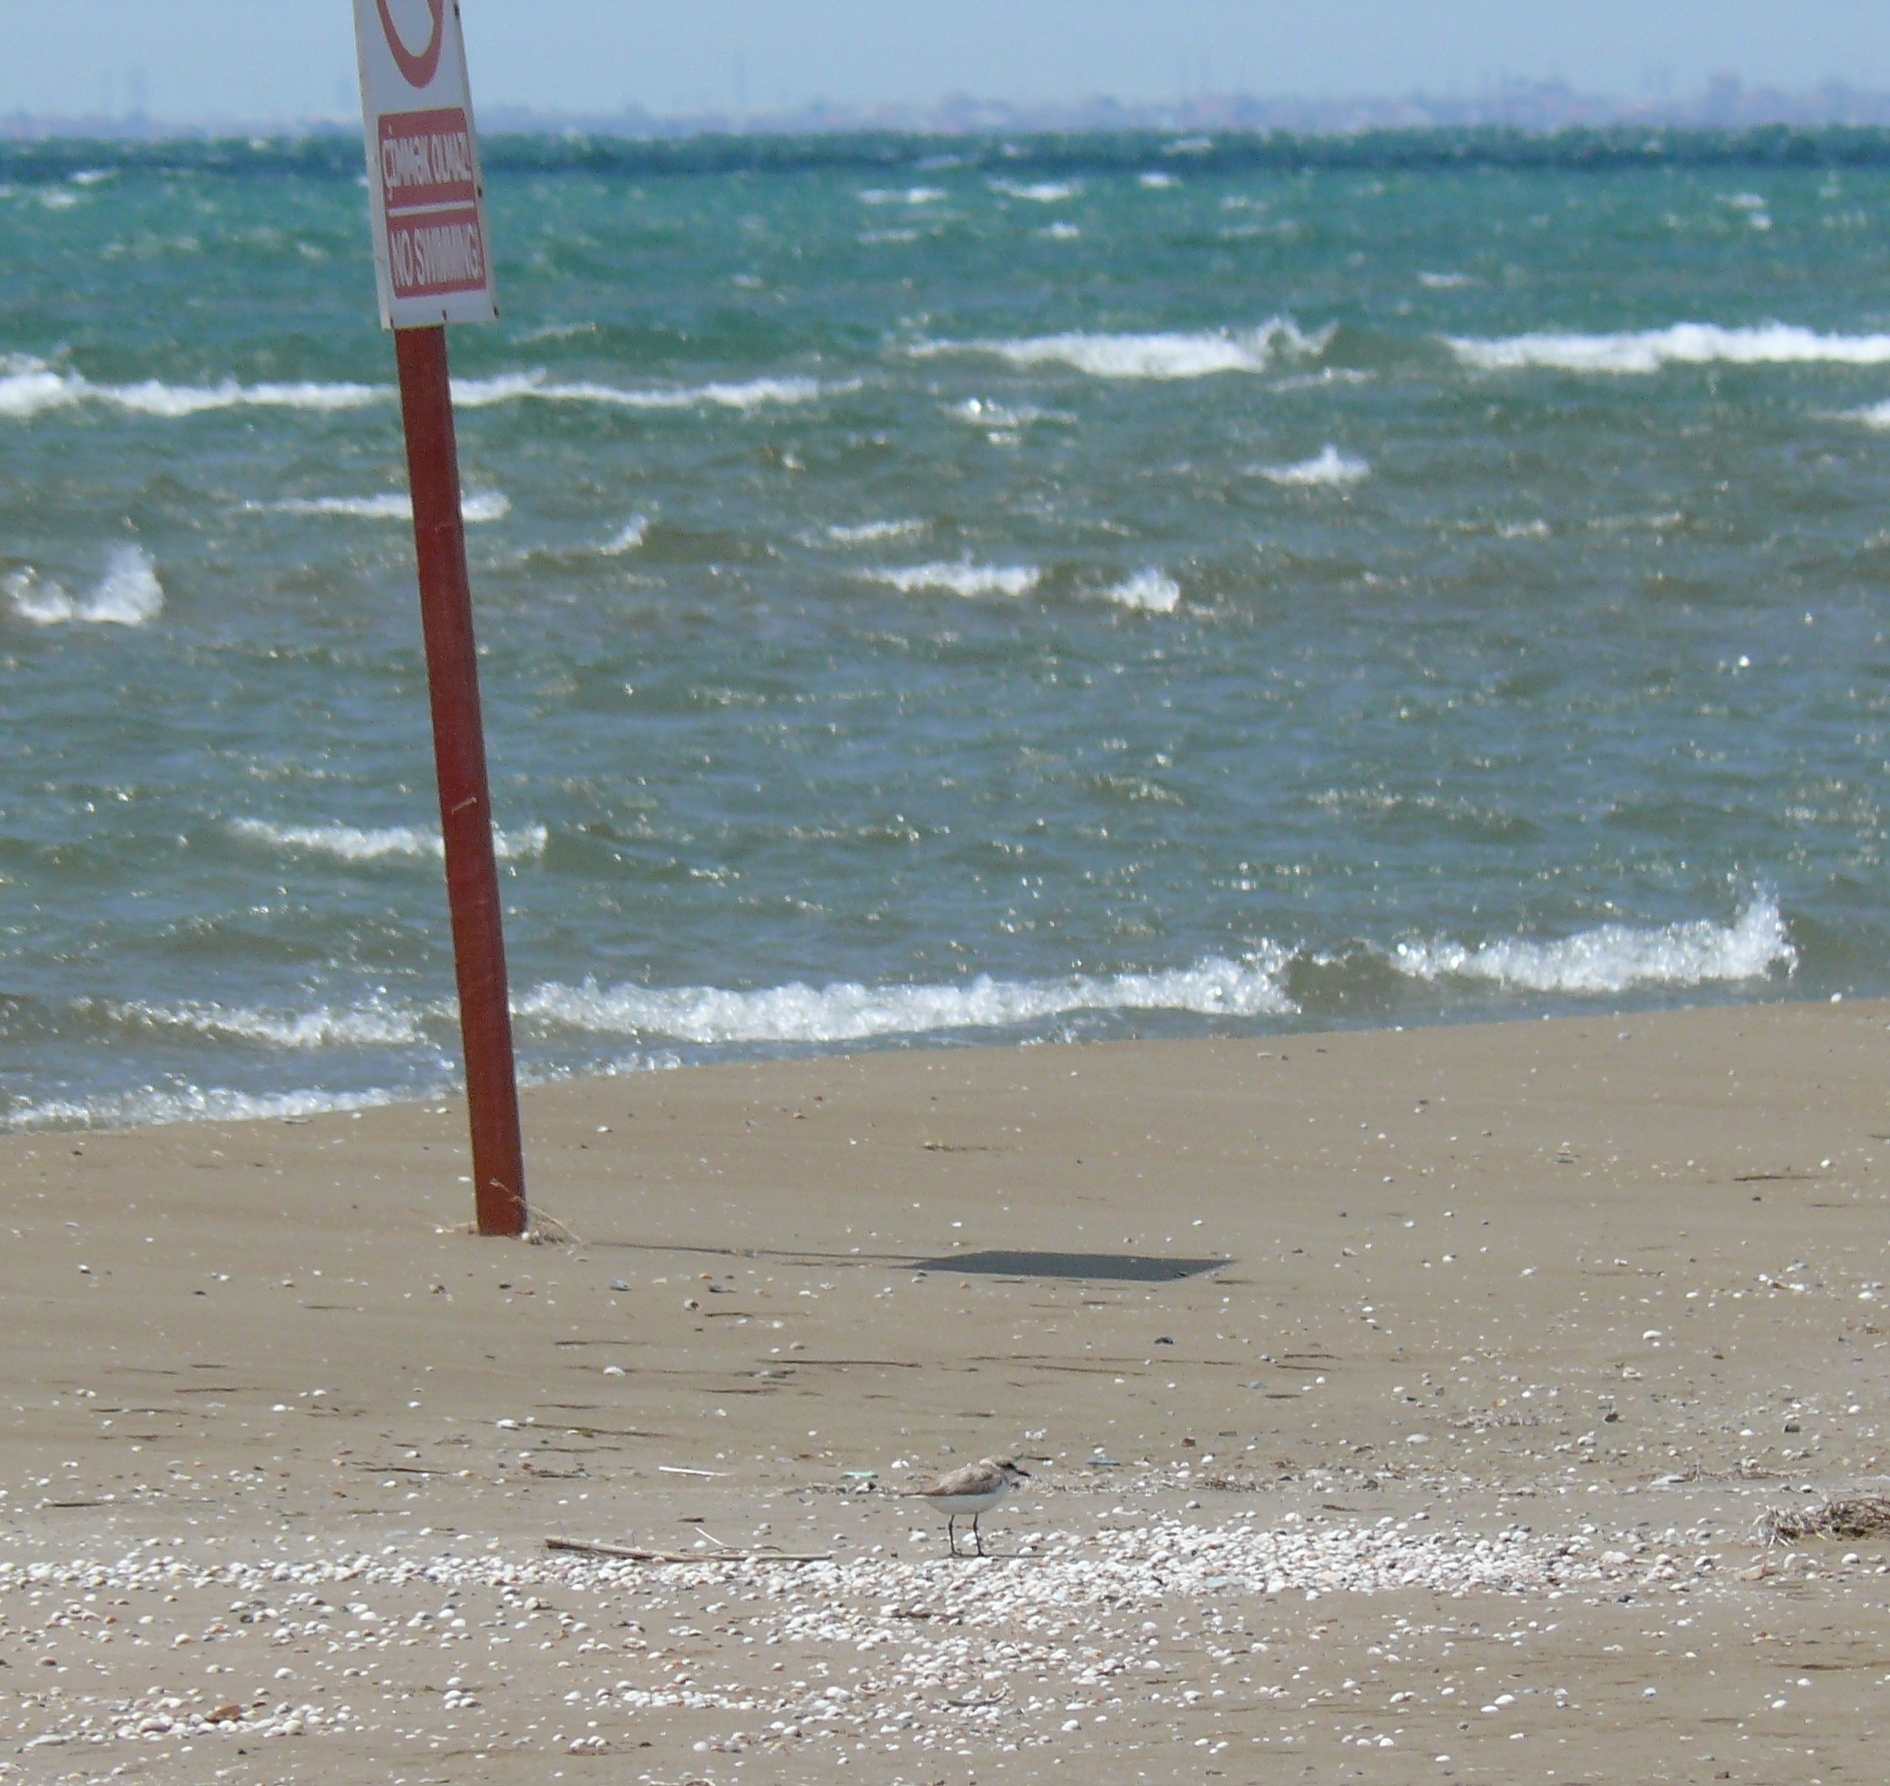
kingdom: Animalia
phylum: Chordata
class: Aves
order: Charadriiformes
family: Charadriidae
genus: Charadrius
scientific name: Charadrius alexandrinus
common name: Kentish plover
